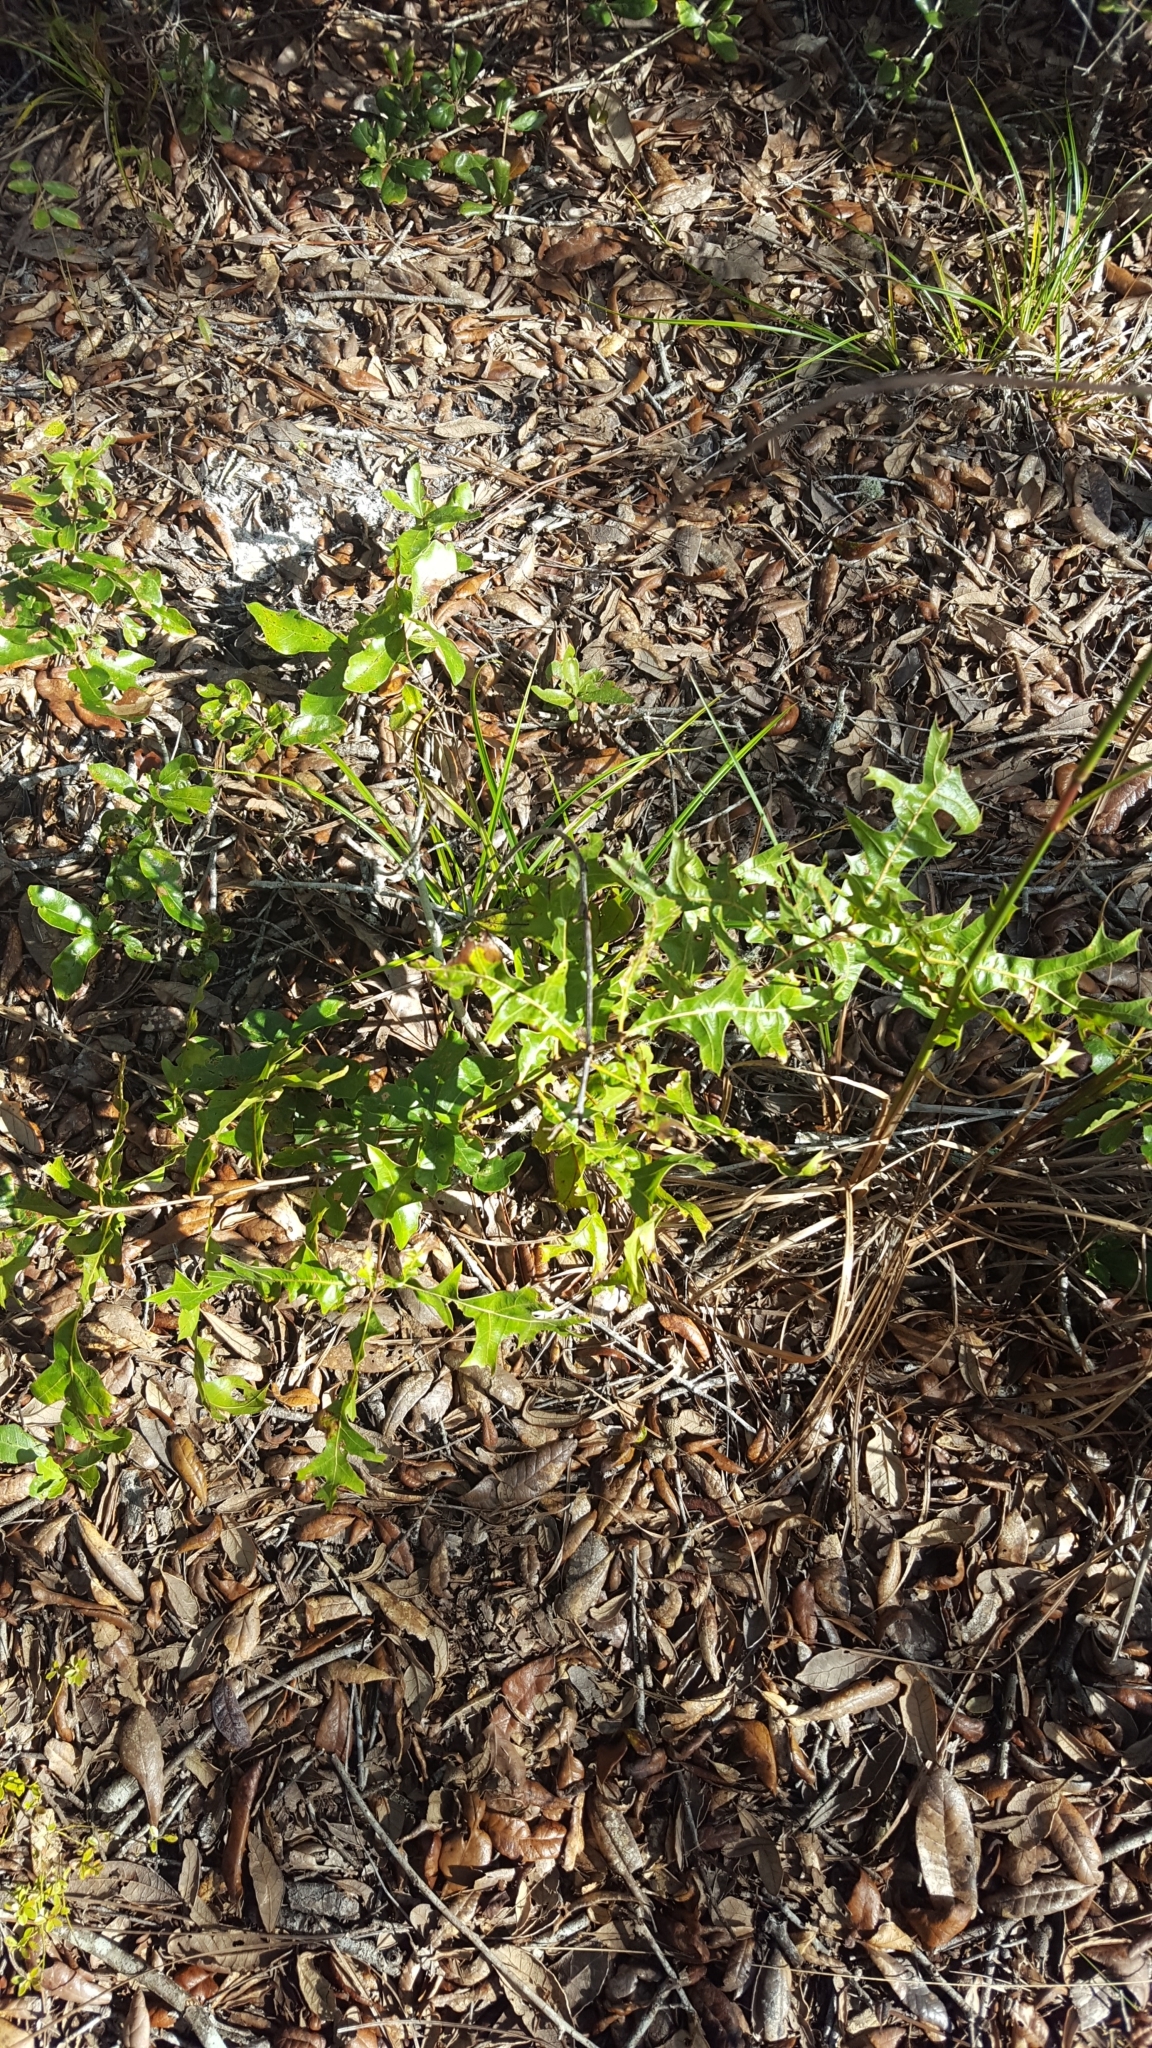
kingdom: Plantae
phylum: Tracheophyta
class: Magnoliopsida
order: Fagales
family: Fagaceae
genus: Quercus
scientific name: Quercus laevis
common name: Turkey oak
